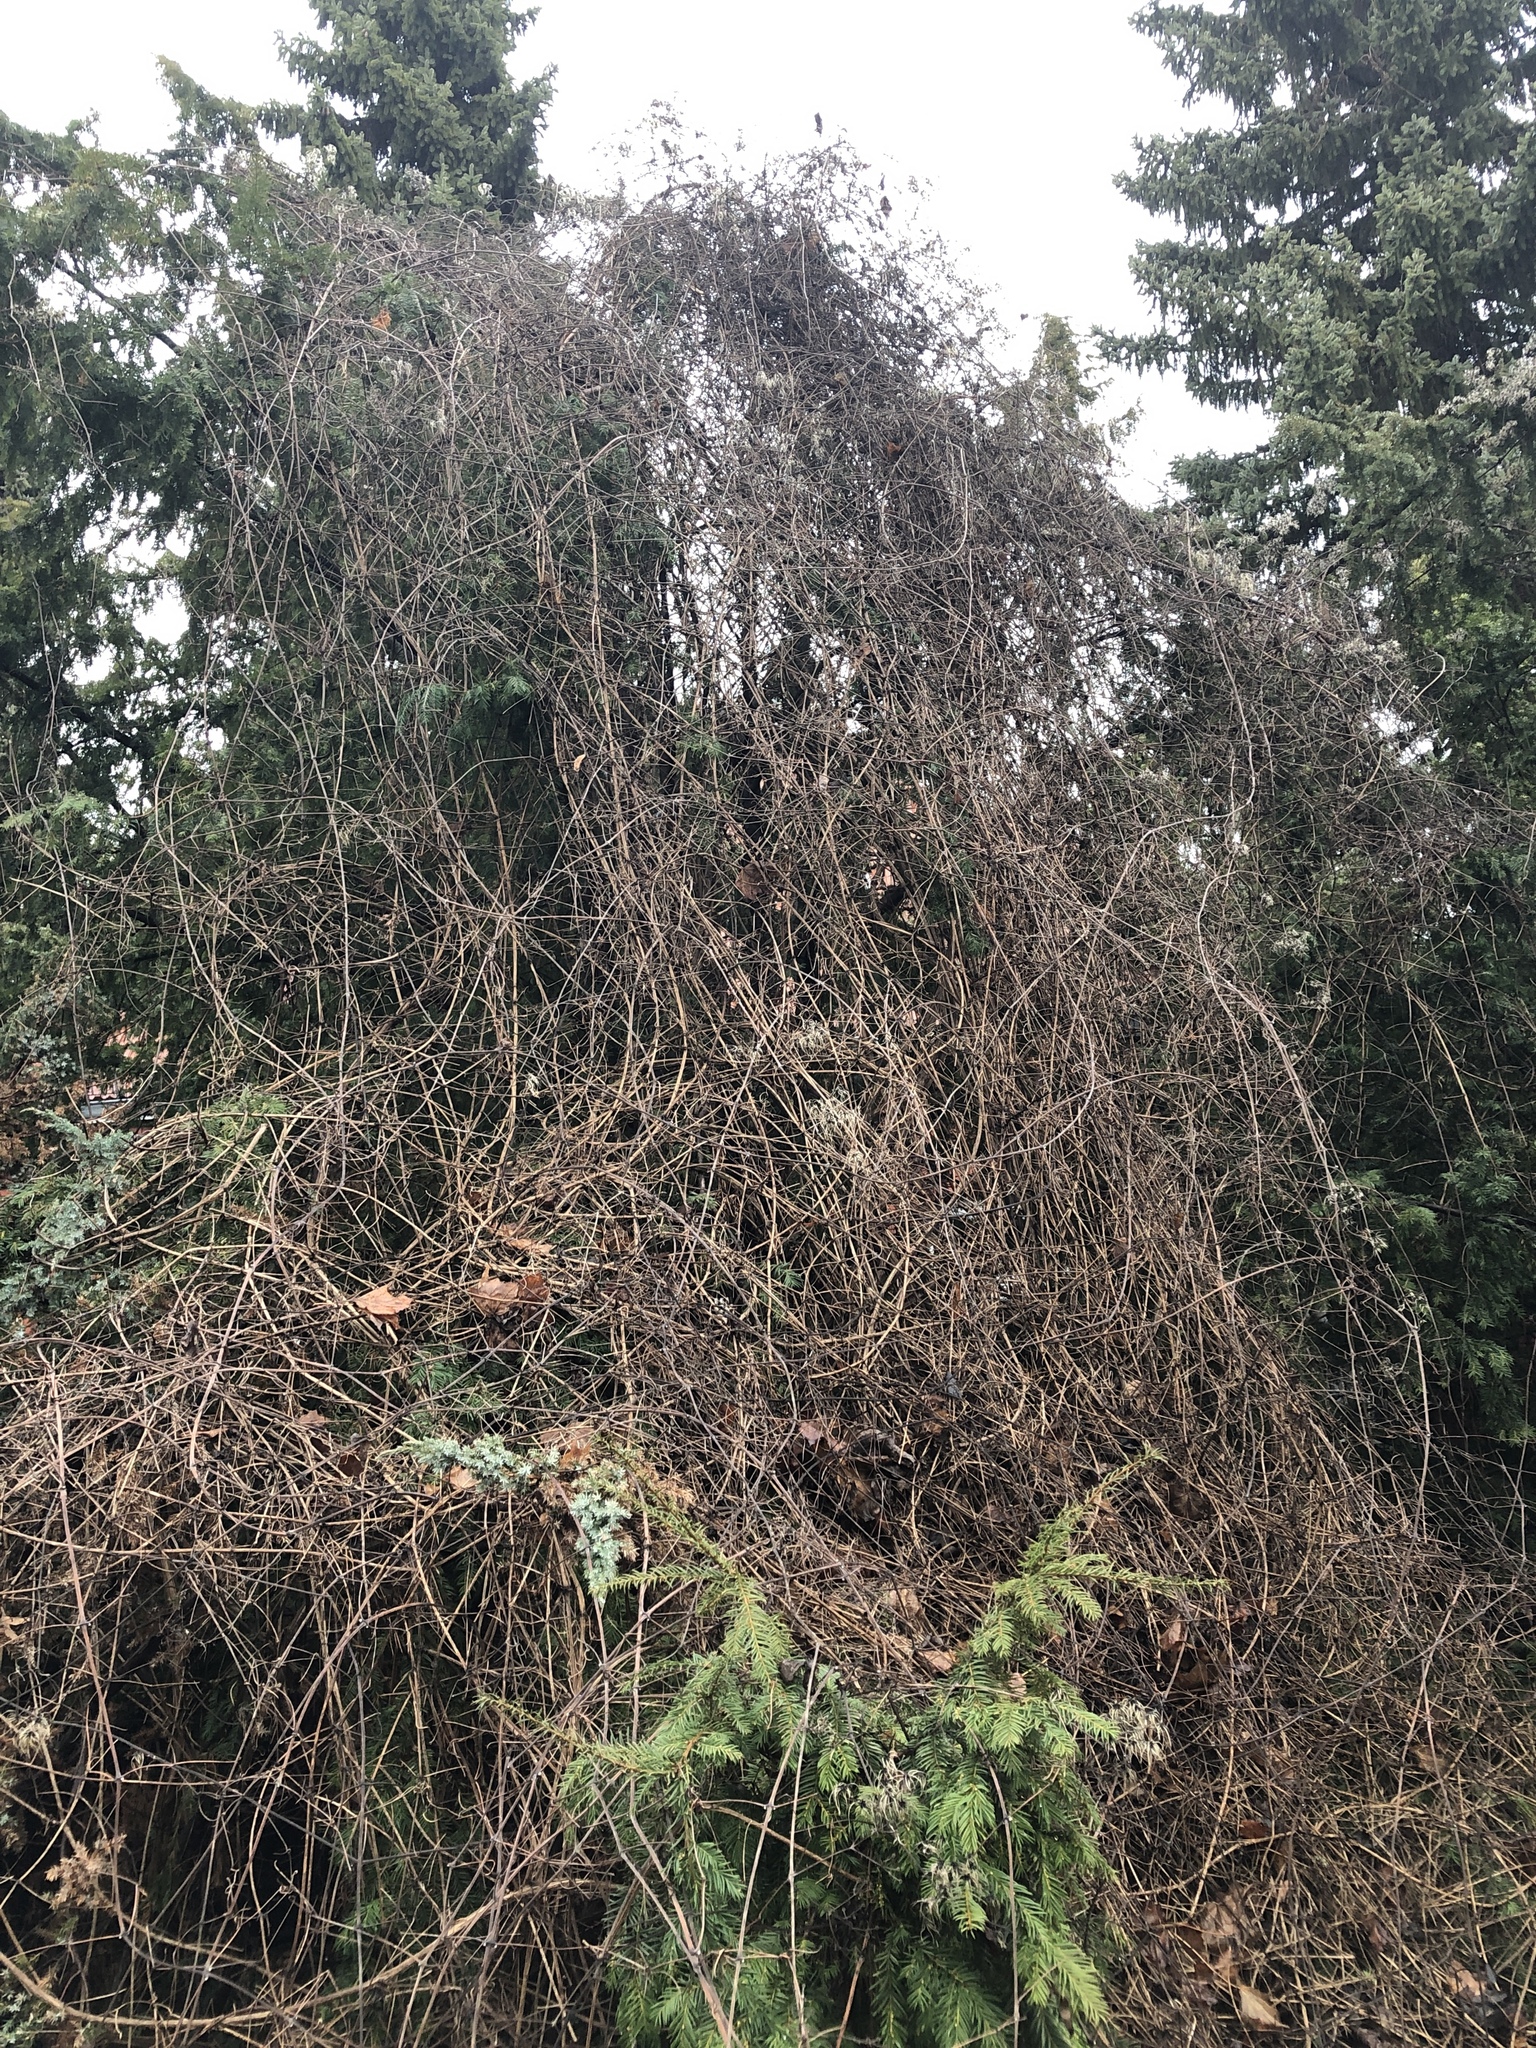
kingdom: Plantae
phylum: Tracheophyta
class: Magnoliopsida
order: Ranunculales
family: Ranunculaceae
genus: Clematis
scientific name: Clematis vitalba
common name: Evergreen clematis
